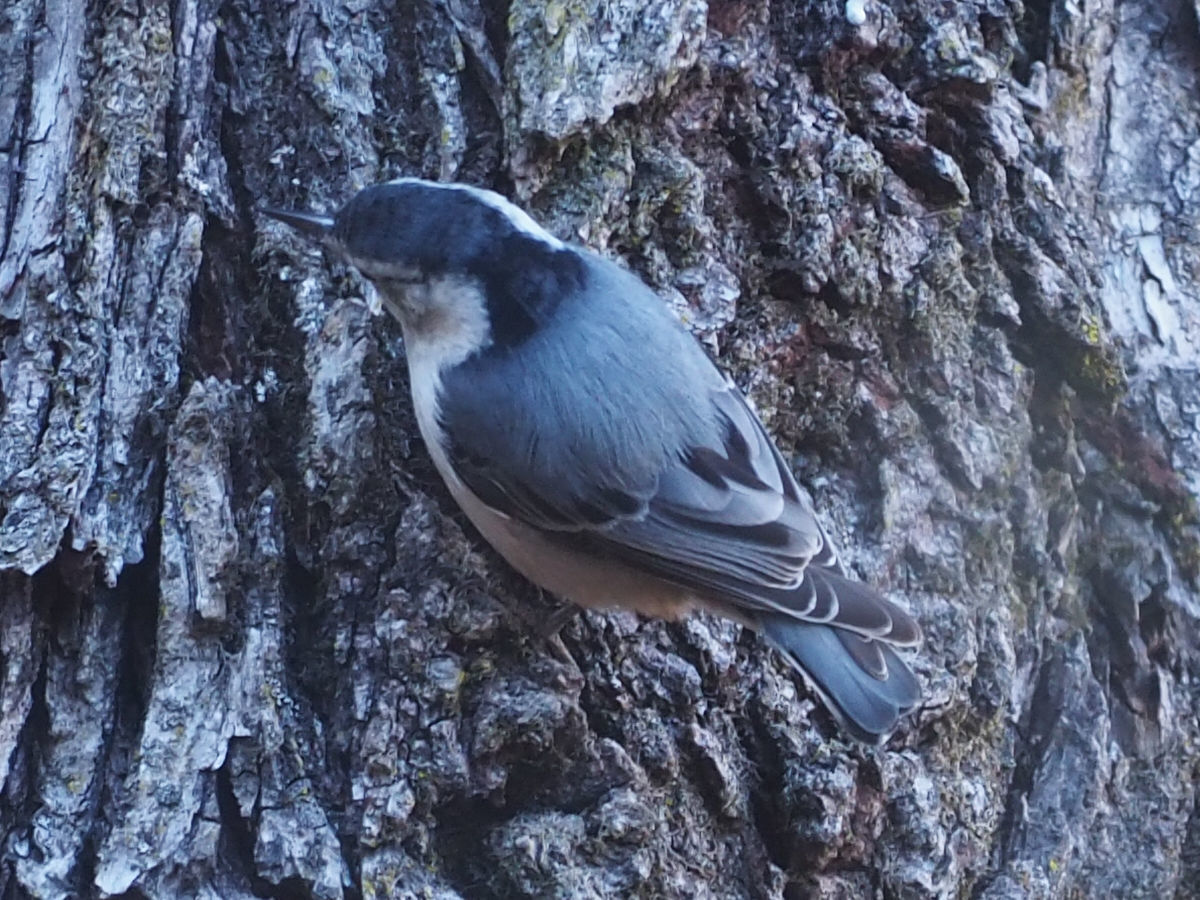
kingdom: Animalia
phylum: Chordata
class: Aves
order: Passeriformes
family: Sittidae
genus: Sitta
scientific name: Sitta carolinensis
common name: White-breasted nuthatch
